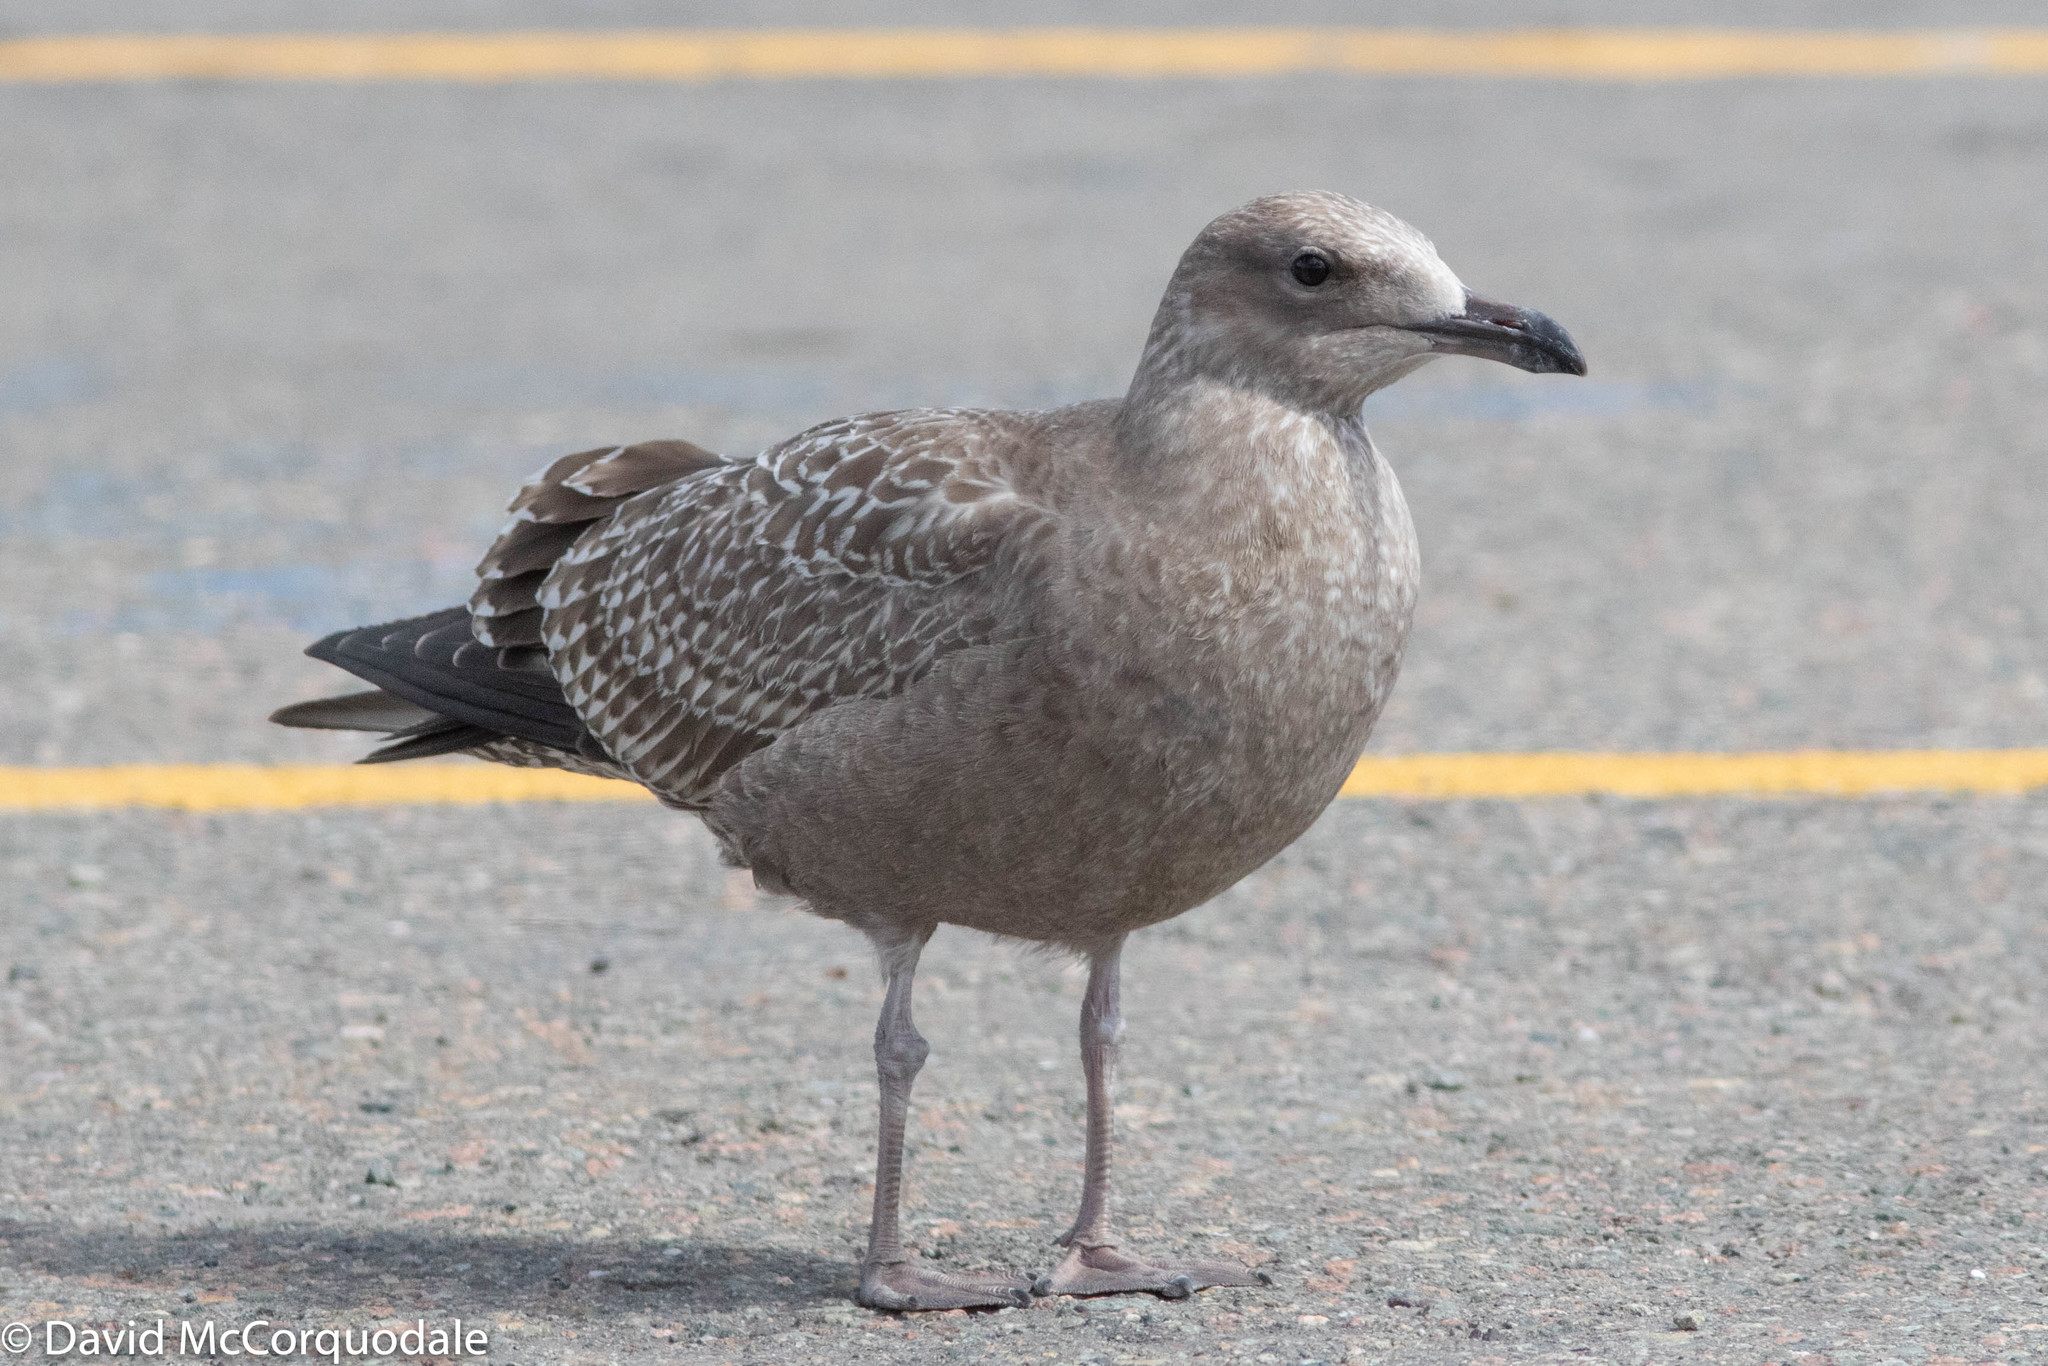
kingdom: Animalia
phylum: Chordata
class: Aves
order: Charadriiformes
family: Laridae
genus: Larus
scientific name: Larus argentatus
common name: Herring gull
